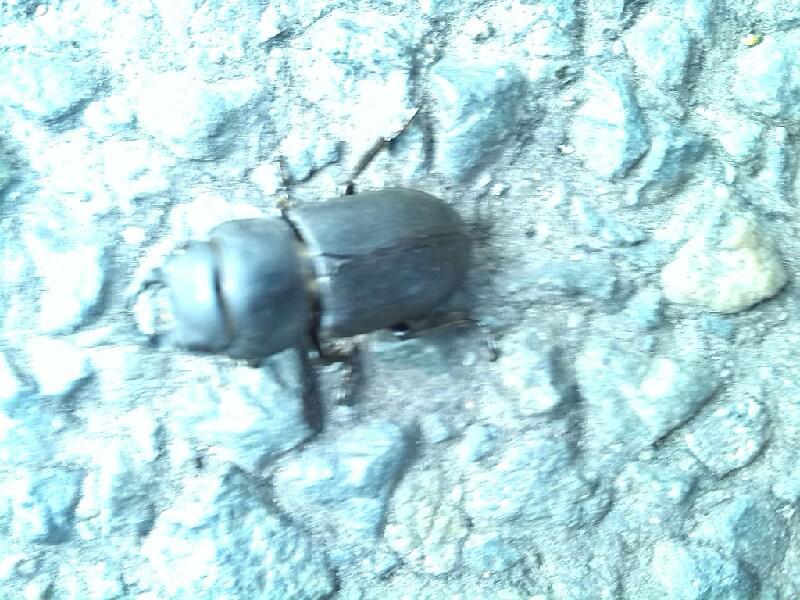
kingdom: Animalia
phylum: Arthropoda
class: Insecta
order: Coleoptera
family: Lucanidae
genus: Dorcus
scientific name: Dorcus parallelipipedus
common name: Lesser stag beetle
